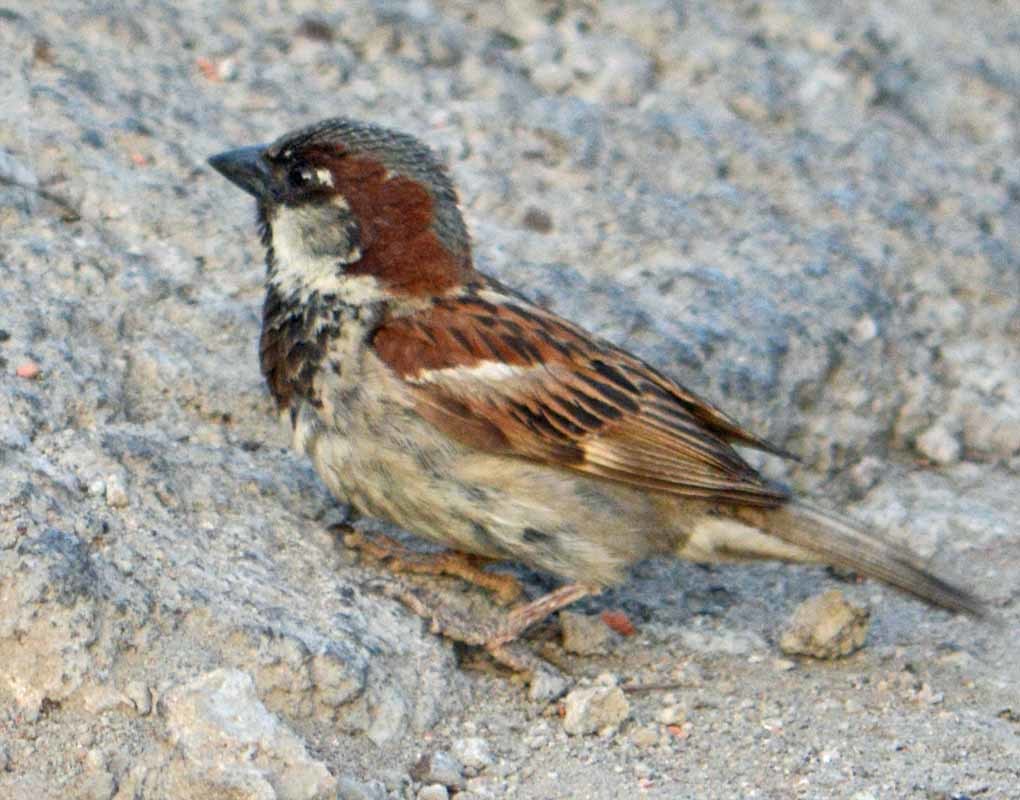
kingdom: Animalia
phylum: Chordata
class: Aves
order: Passeriformes
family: Passeridae
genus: Passer
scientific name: Passer domesticus
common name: House sparrow
